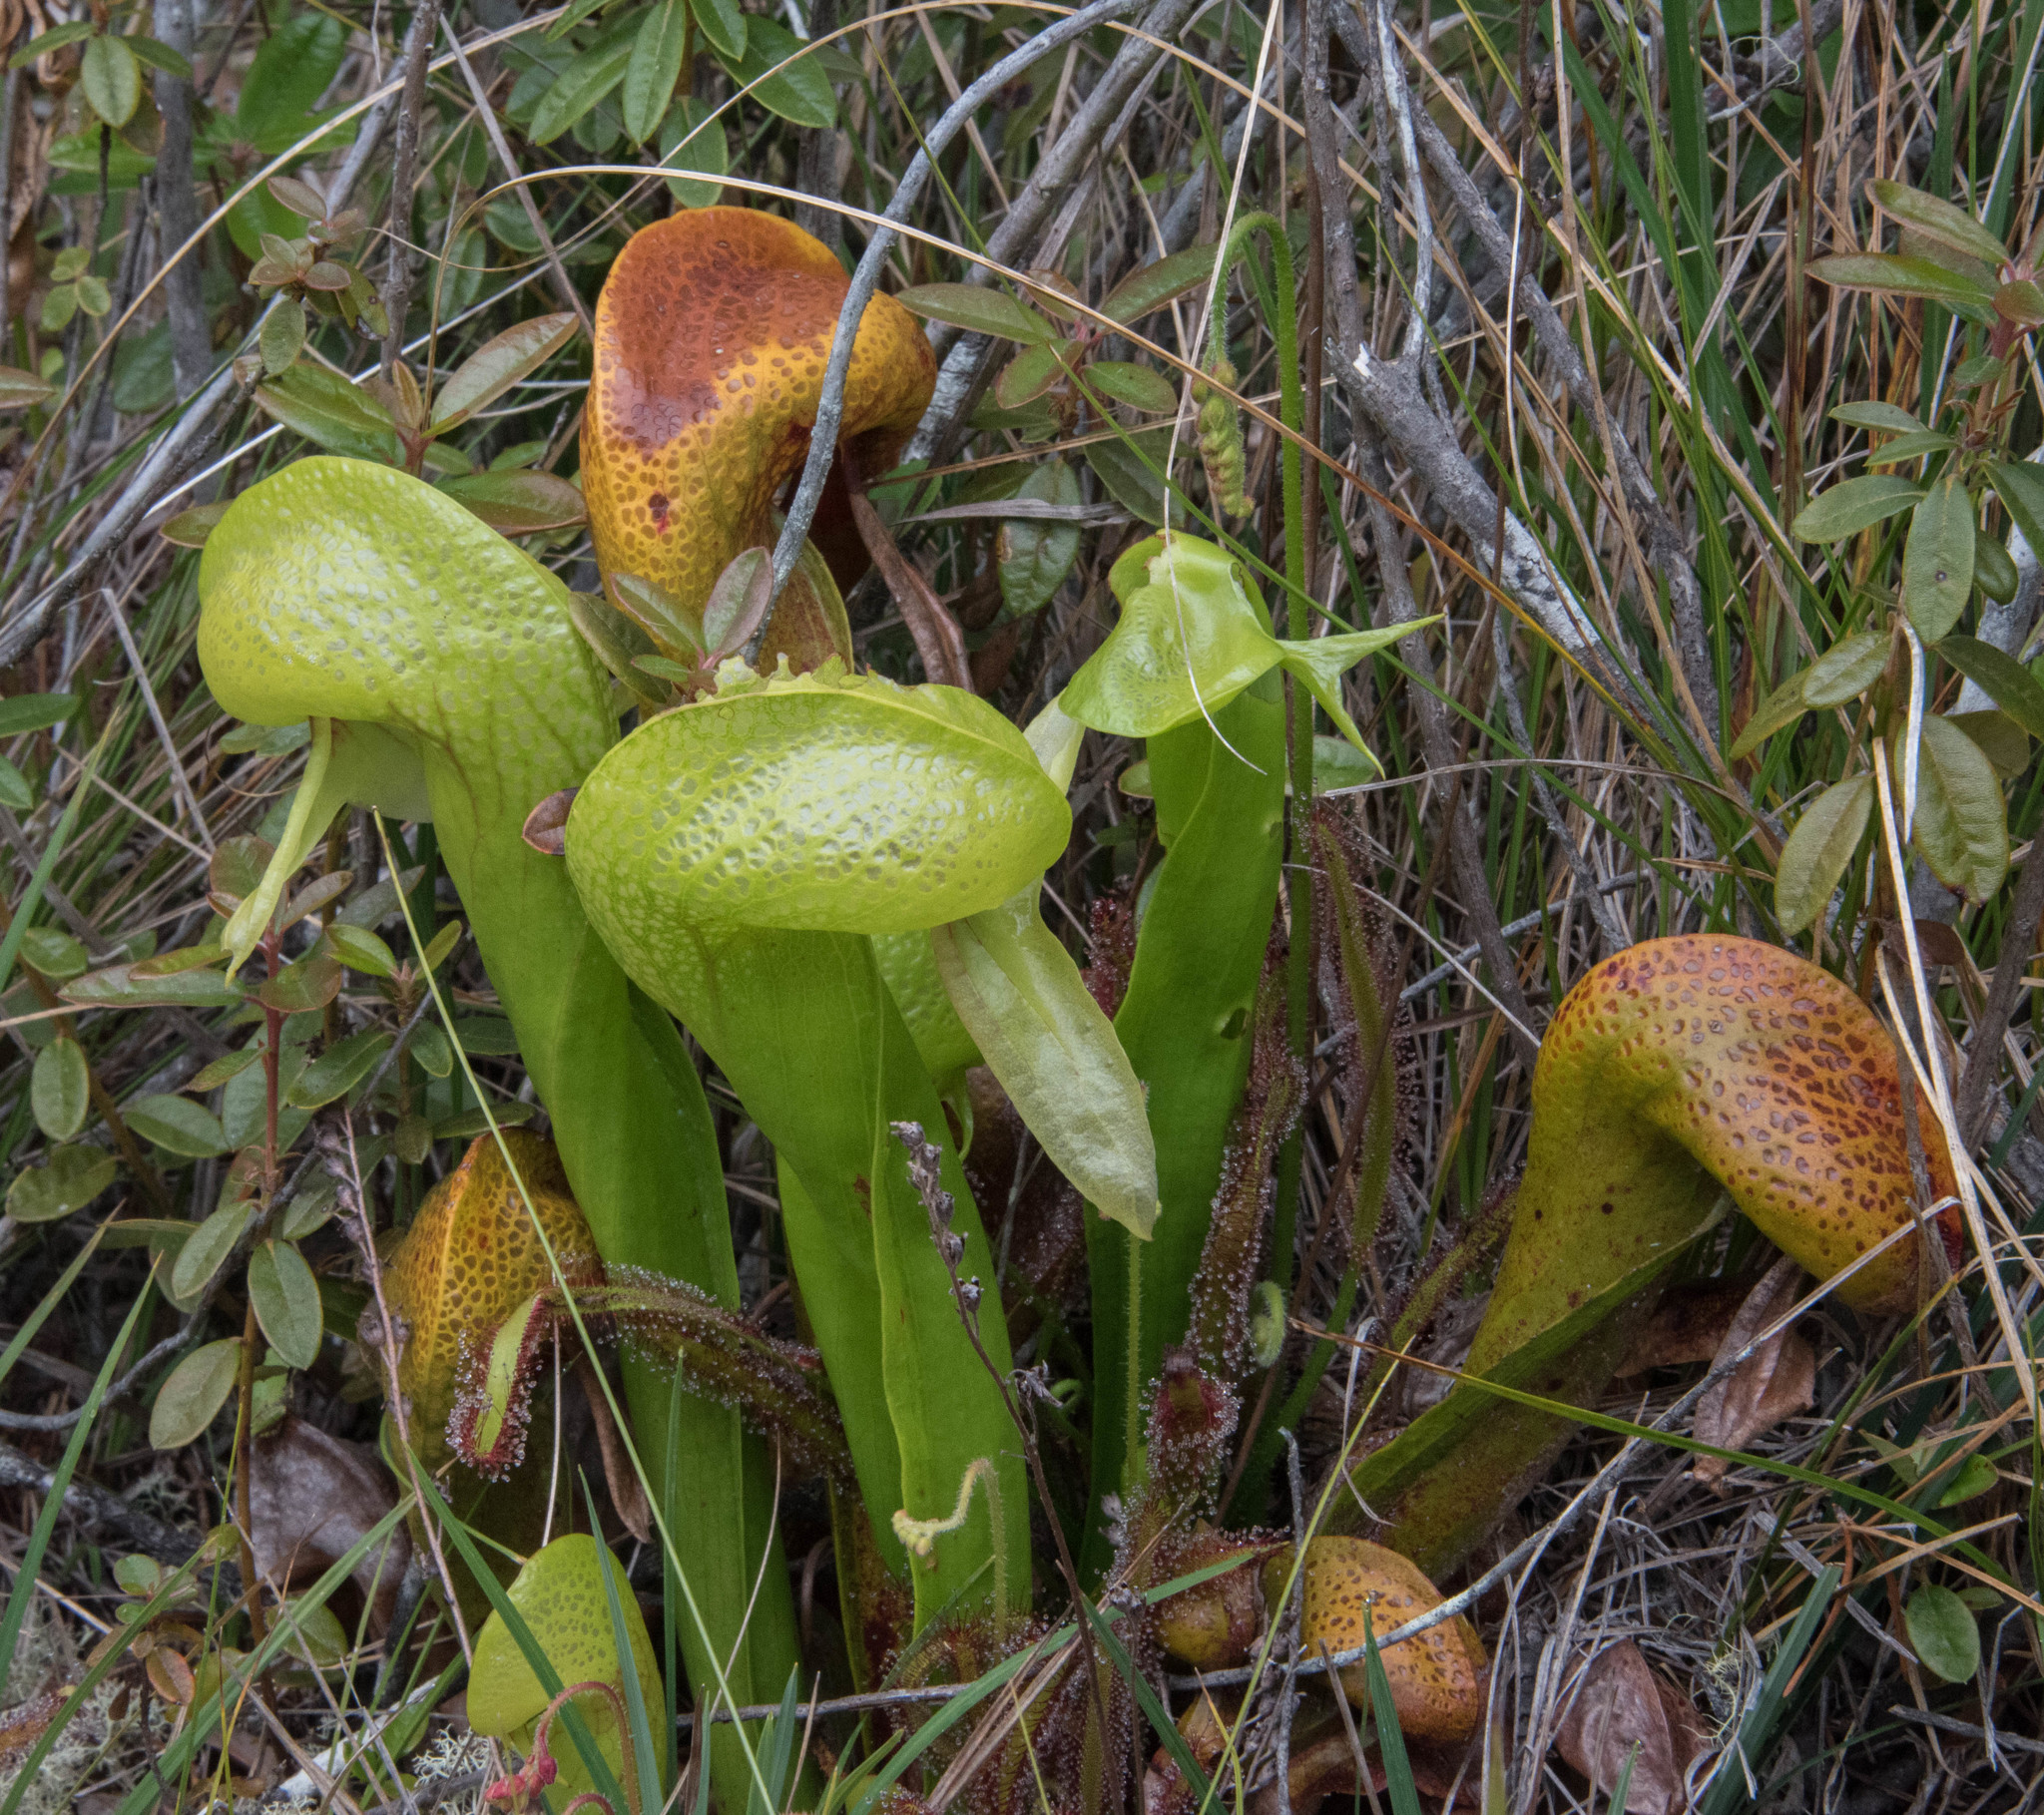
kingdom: Plantae
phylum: Tracheophyta
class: Magnoliopsida
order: Ericales
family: Sarraceniaceae
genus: Darlingtonia
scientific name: Darlingtonia californica
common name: California pitcher plant
